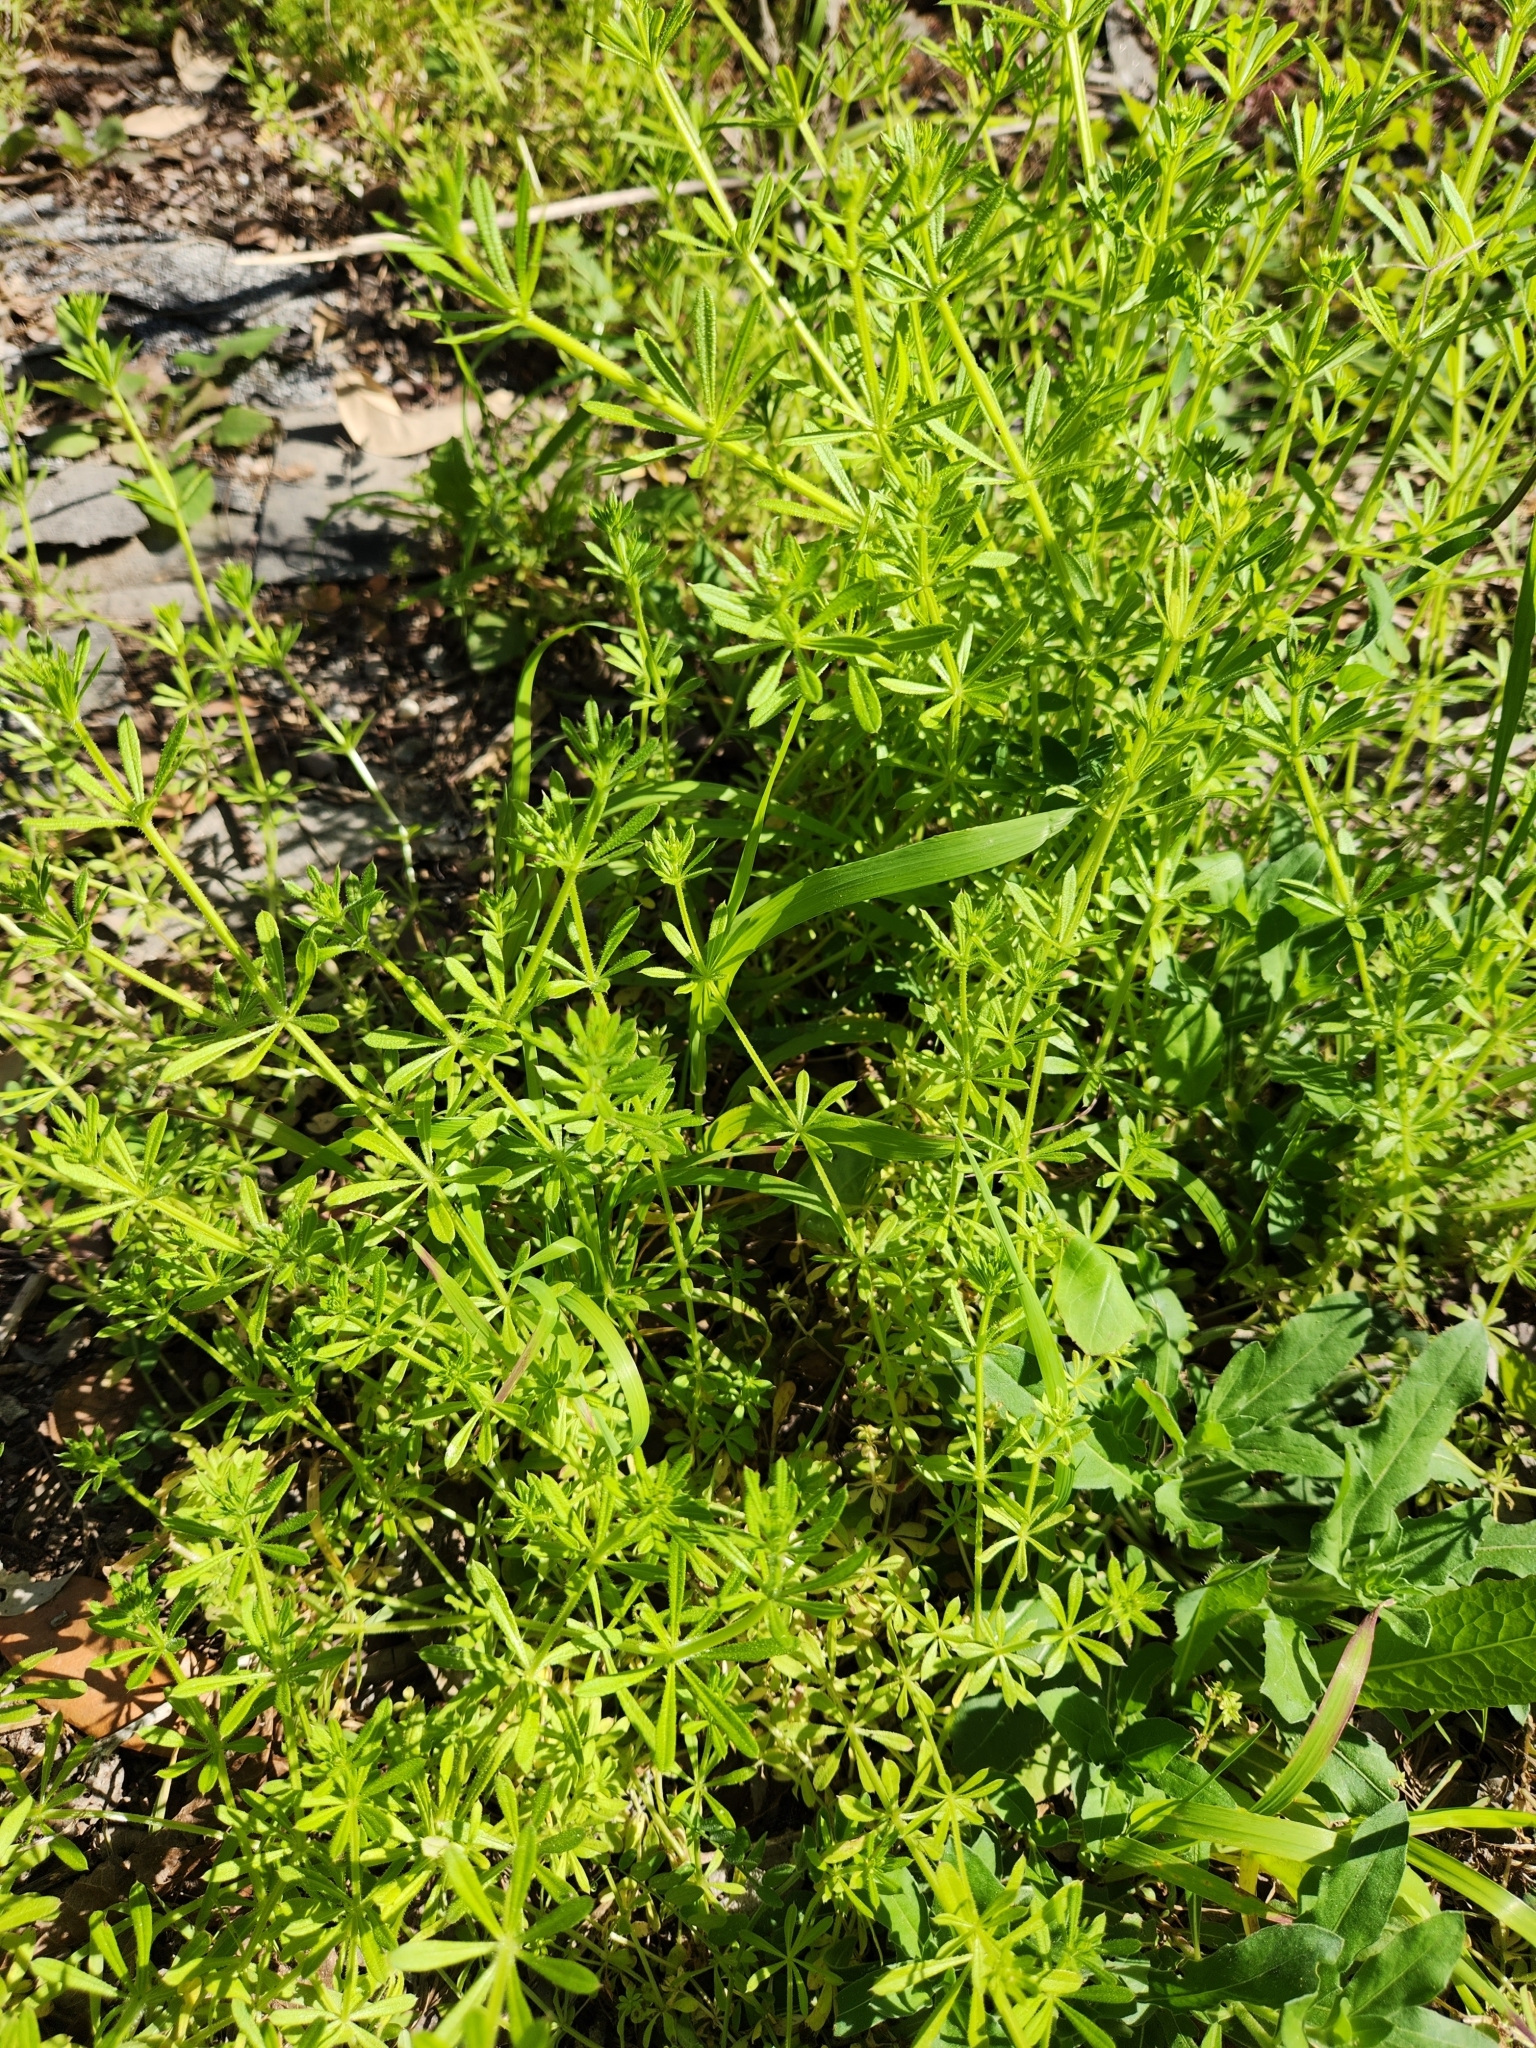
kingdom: Plantae
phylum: Tracheophyta
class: Magnoliopsida
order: Gentianales
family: Rubiaceae
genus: Galium
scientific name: Galium aparine
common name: Cleavers
